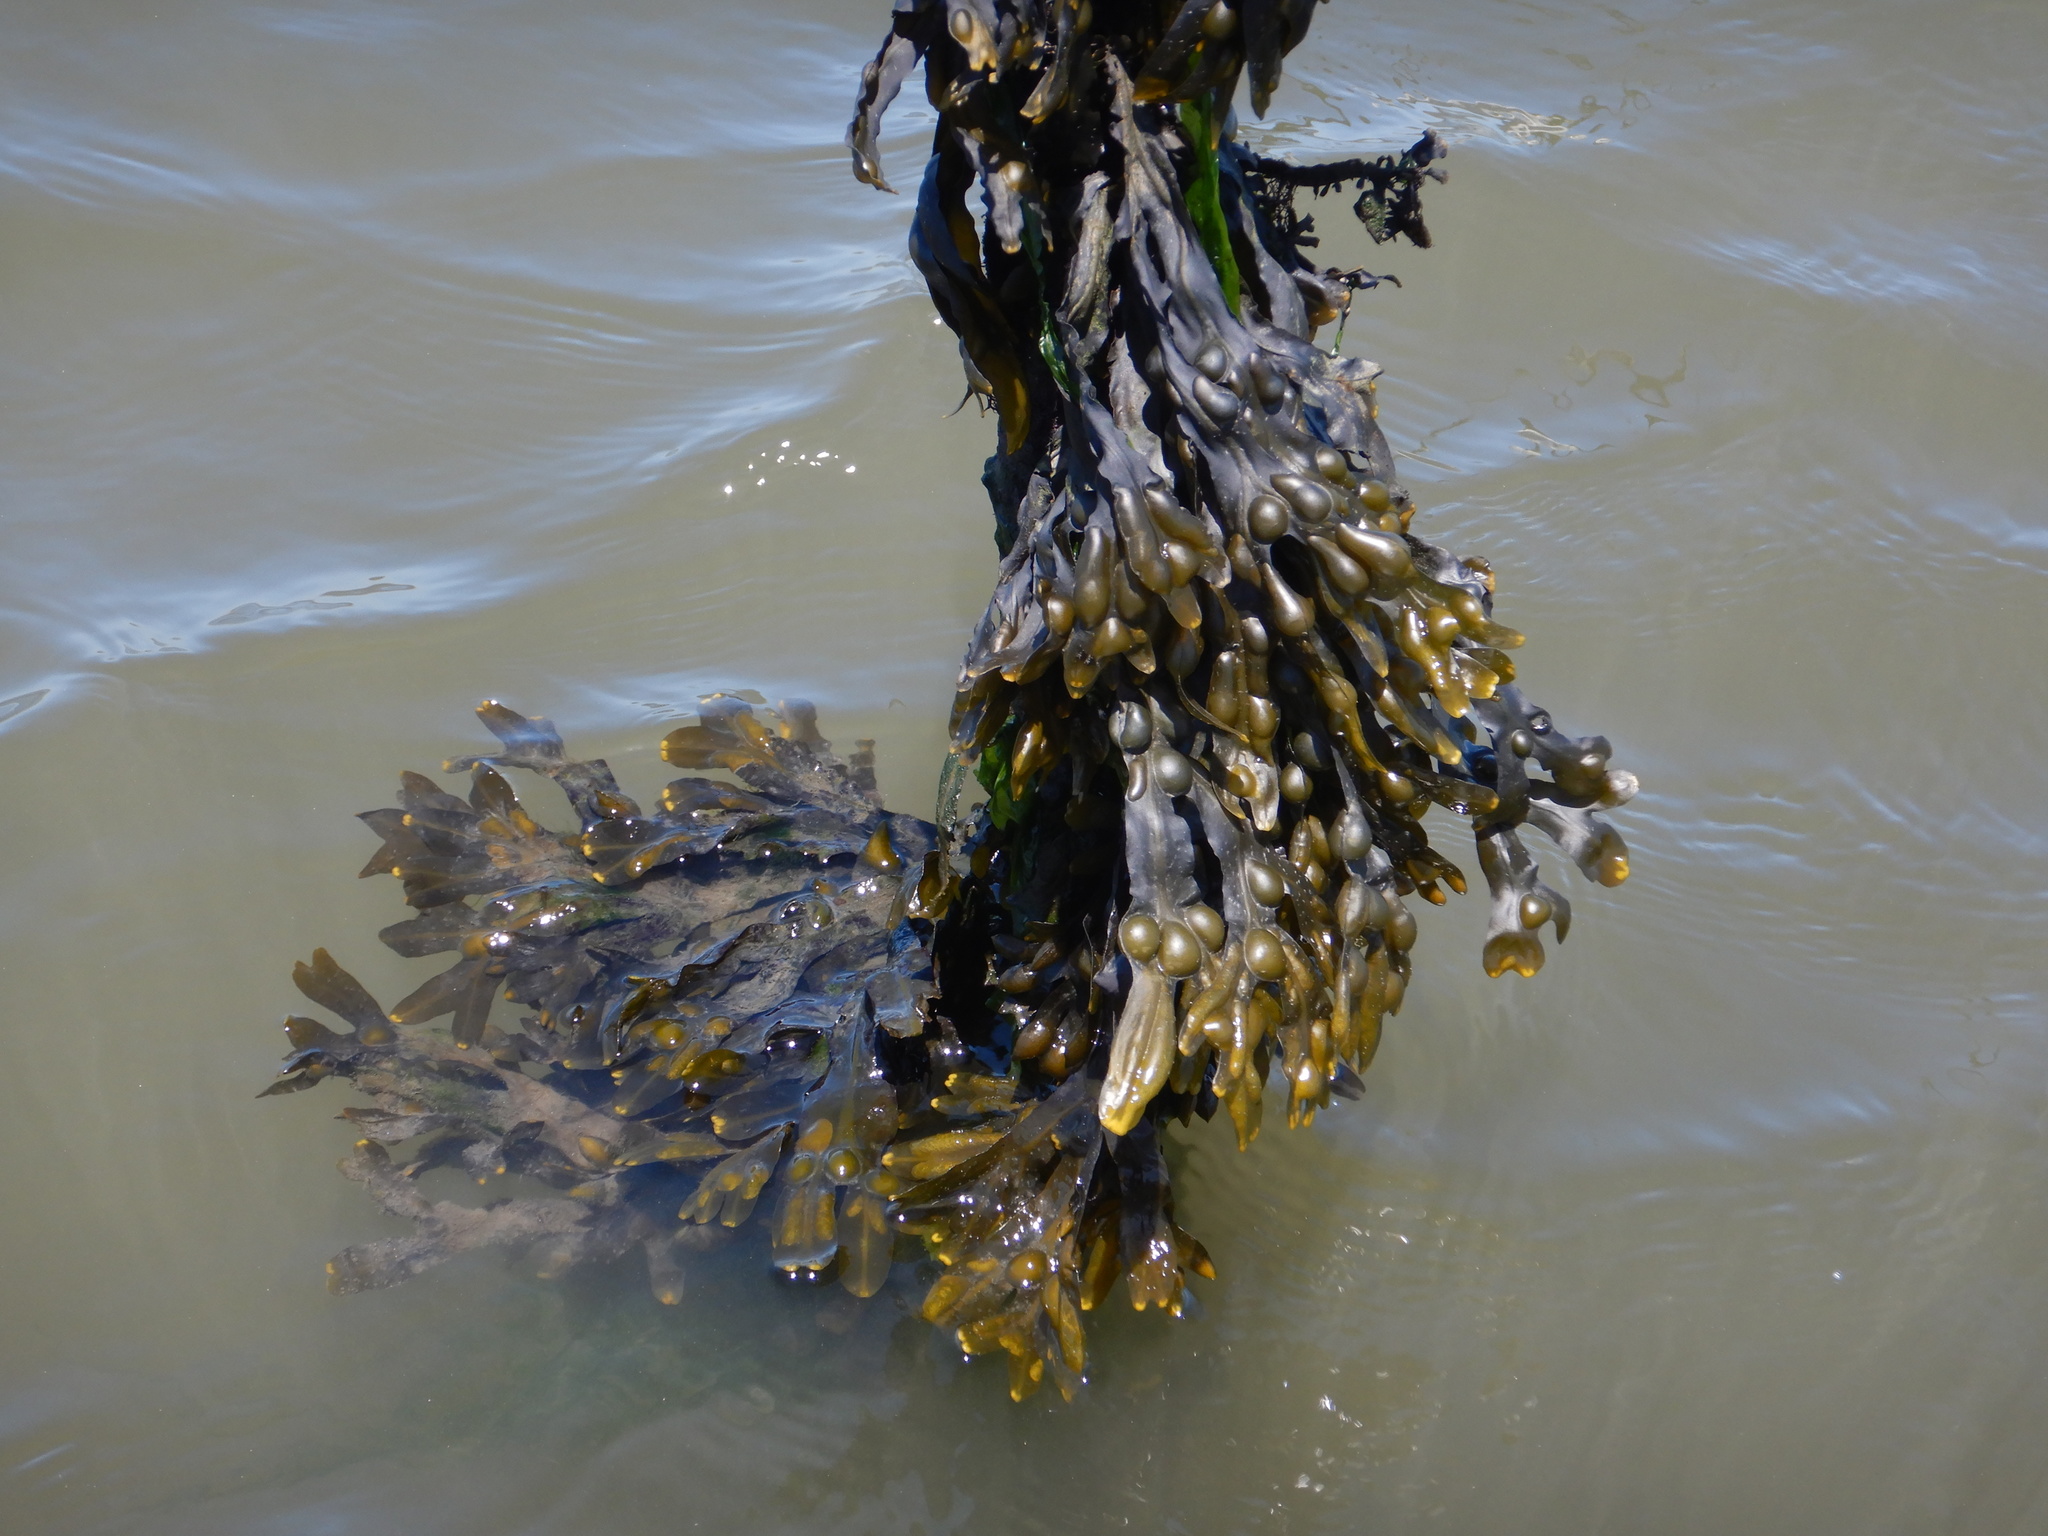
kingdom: Chromista
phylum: Ochrophyta
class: Phaeophyceae
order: Fucales
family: Fucaceae
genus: Fucus
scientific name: Fucus vesiculosus
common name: Bladder wrack
